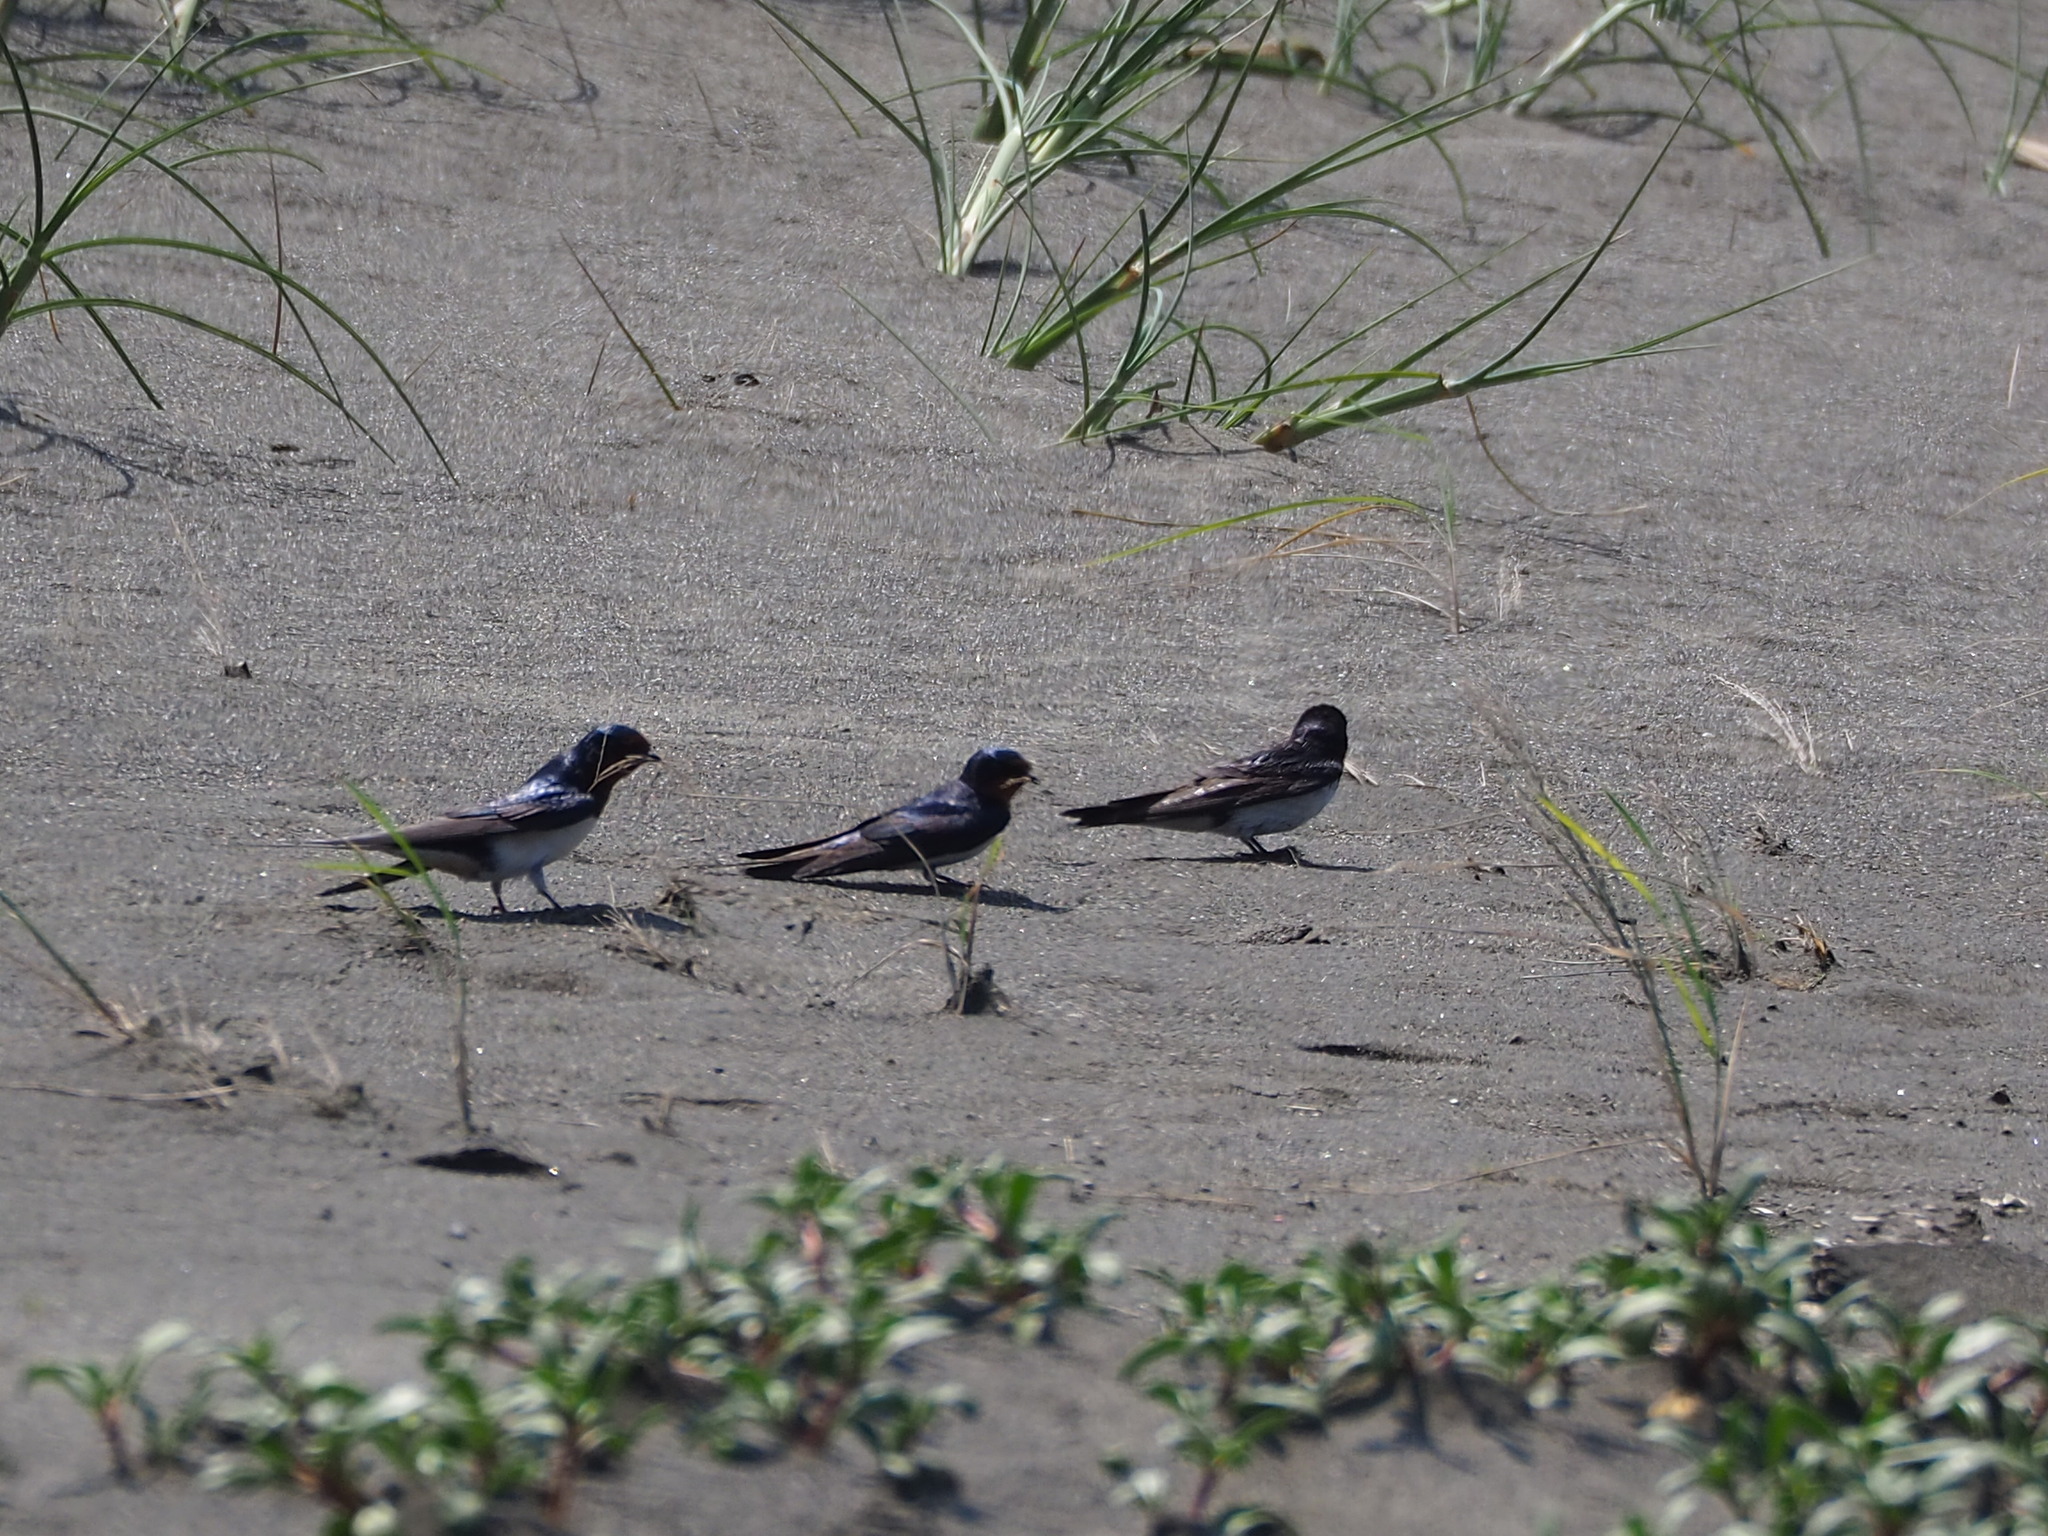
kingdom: Animalia
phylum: Chordata
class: Aves
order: Passeriformes
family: Hirundinidae
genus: Hirundo
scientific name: Hirundo rustica
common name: Barn swallow
